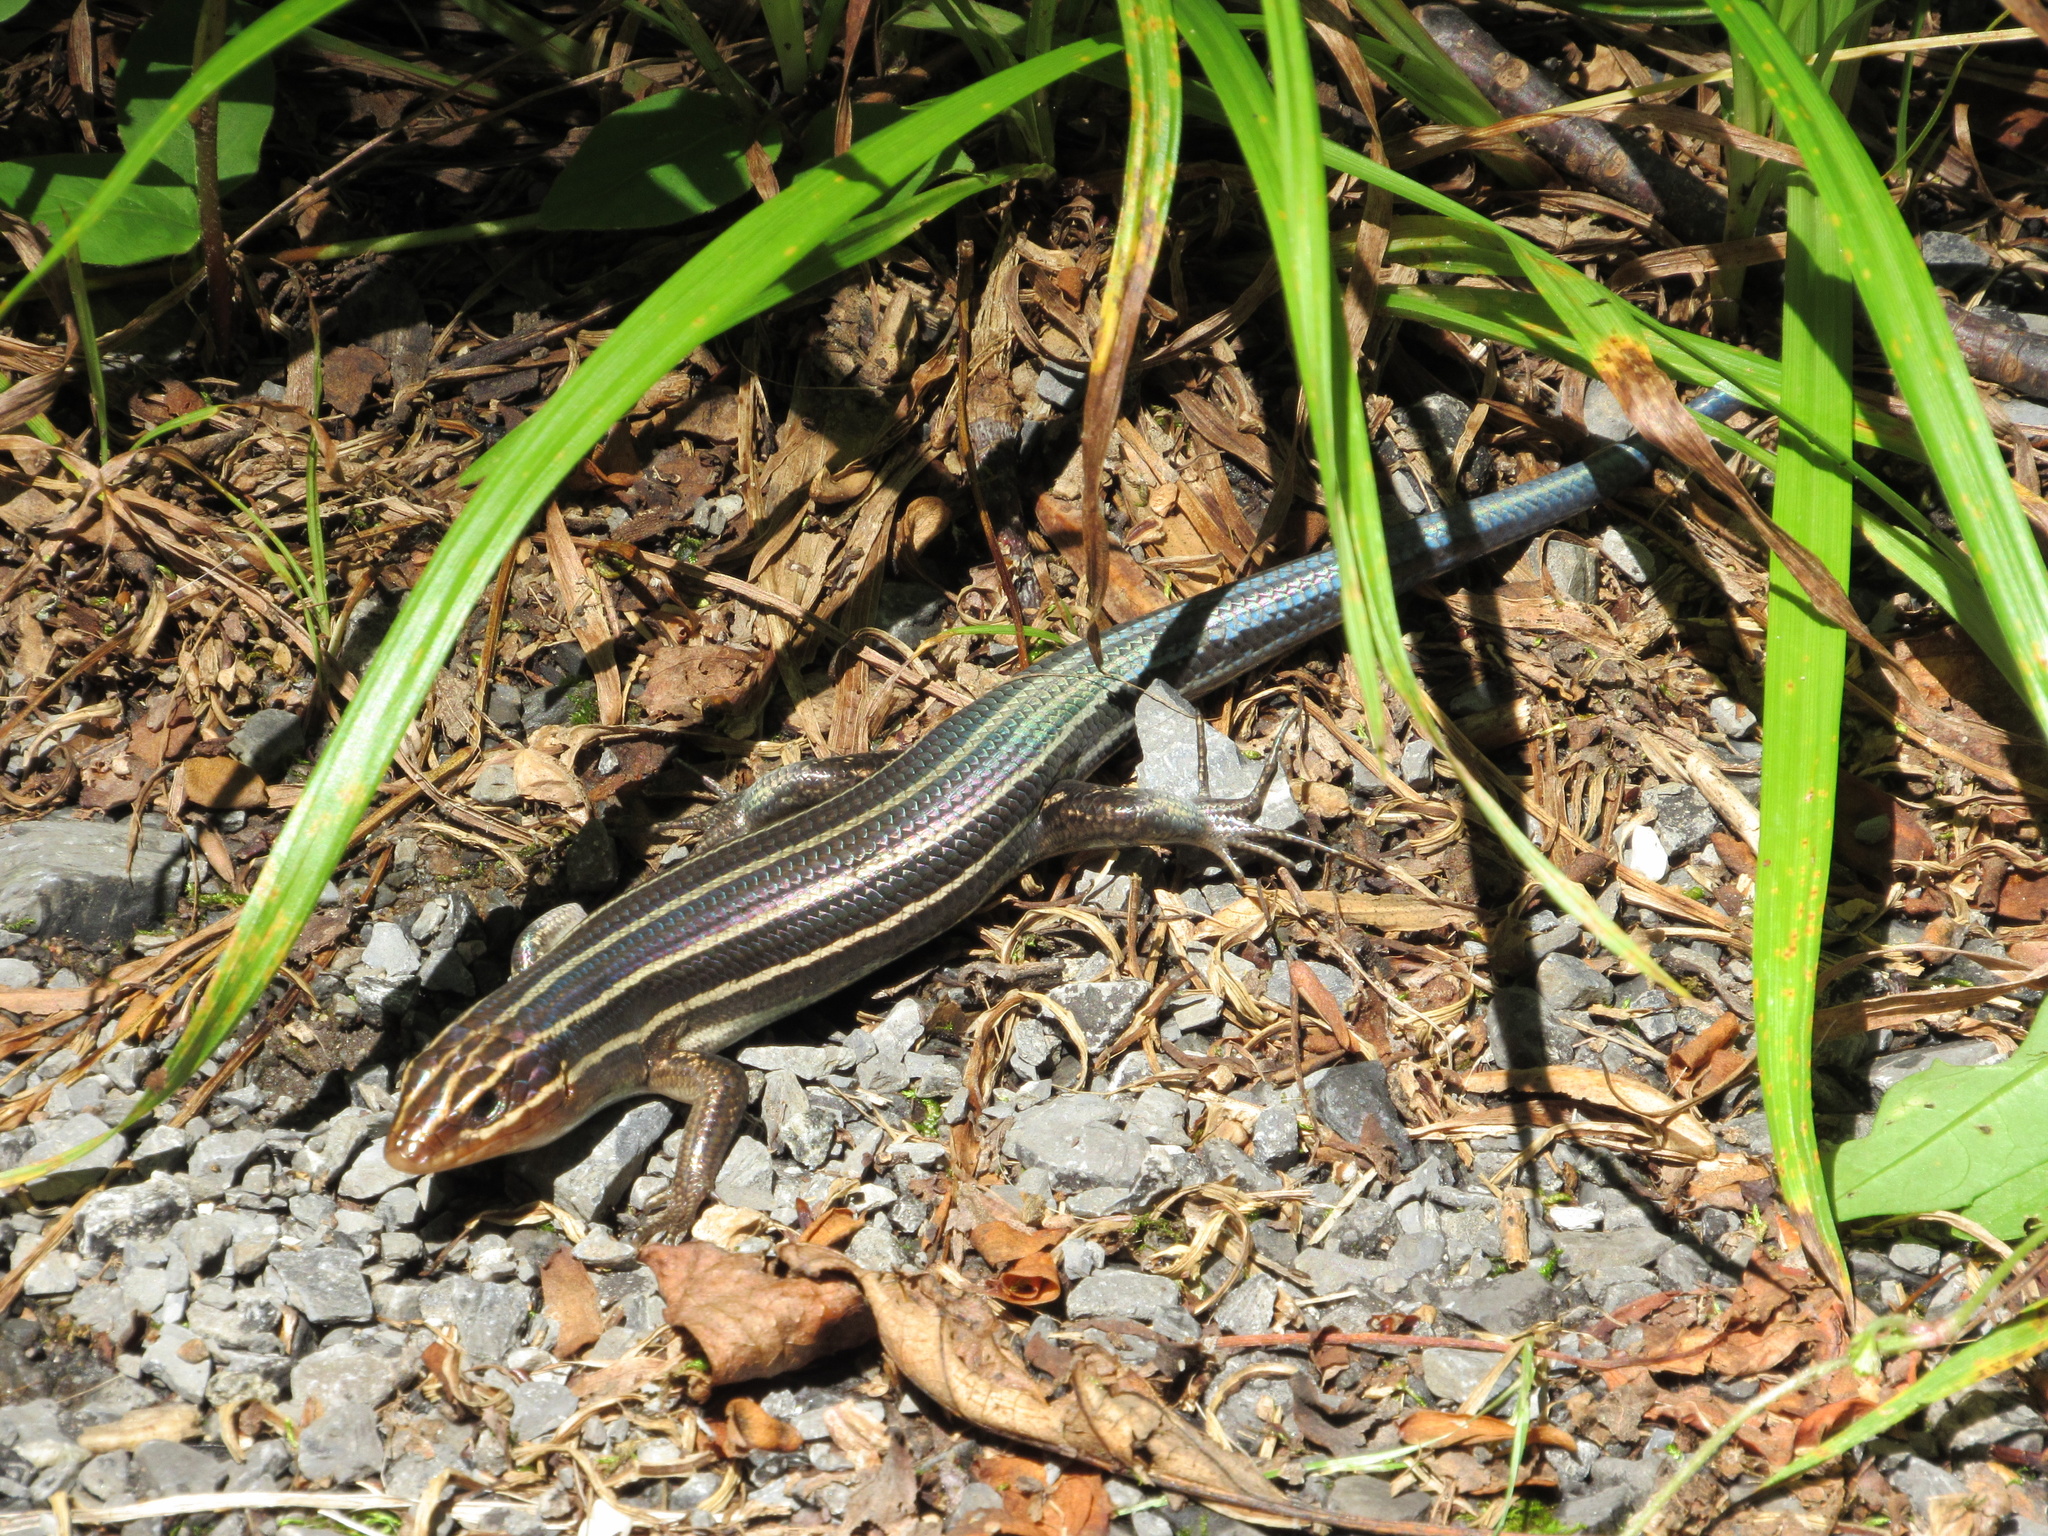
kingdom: Animalia
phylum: Chordata
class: Squamata
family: Scincidae
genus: Plestiodon
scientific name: Plestiodon laticeps
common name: Broadhead skink
